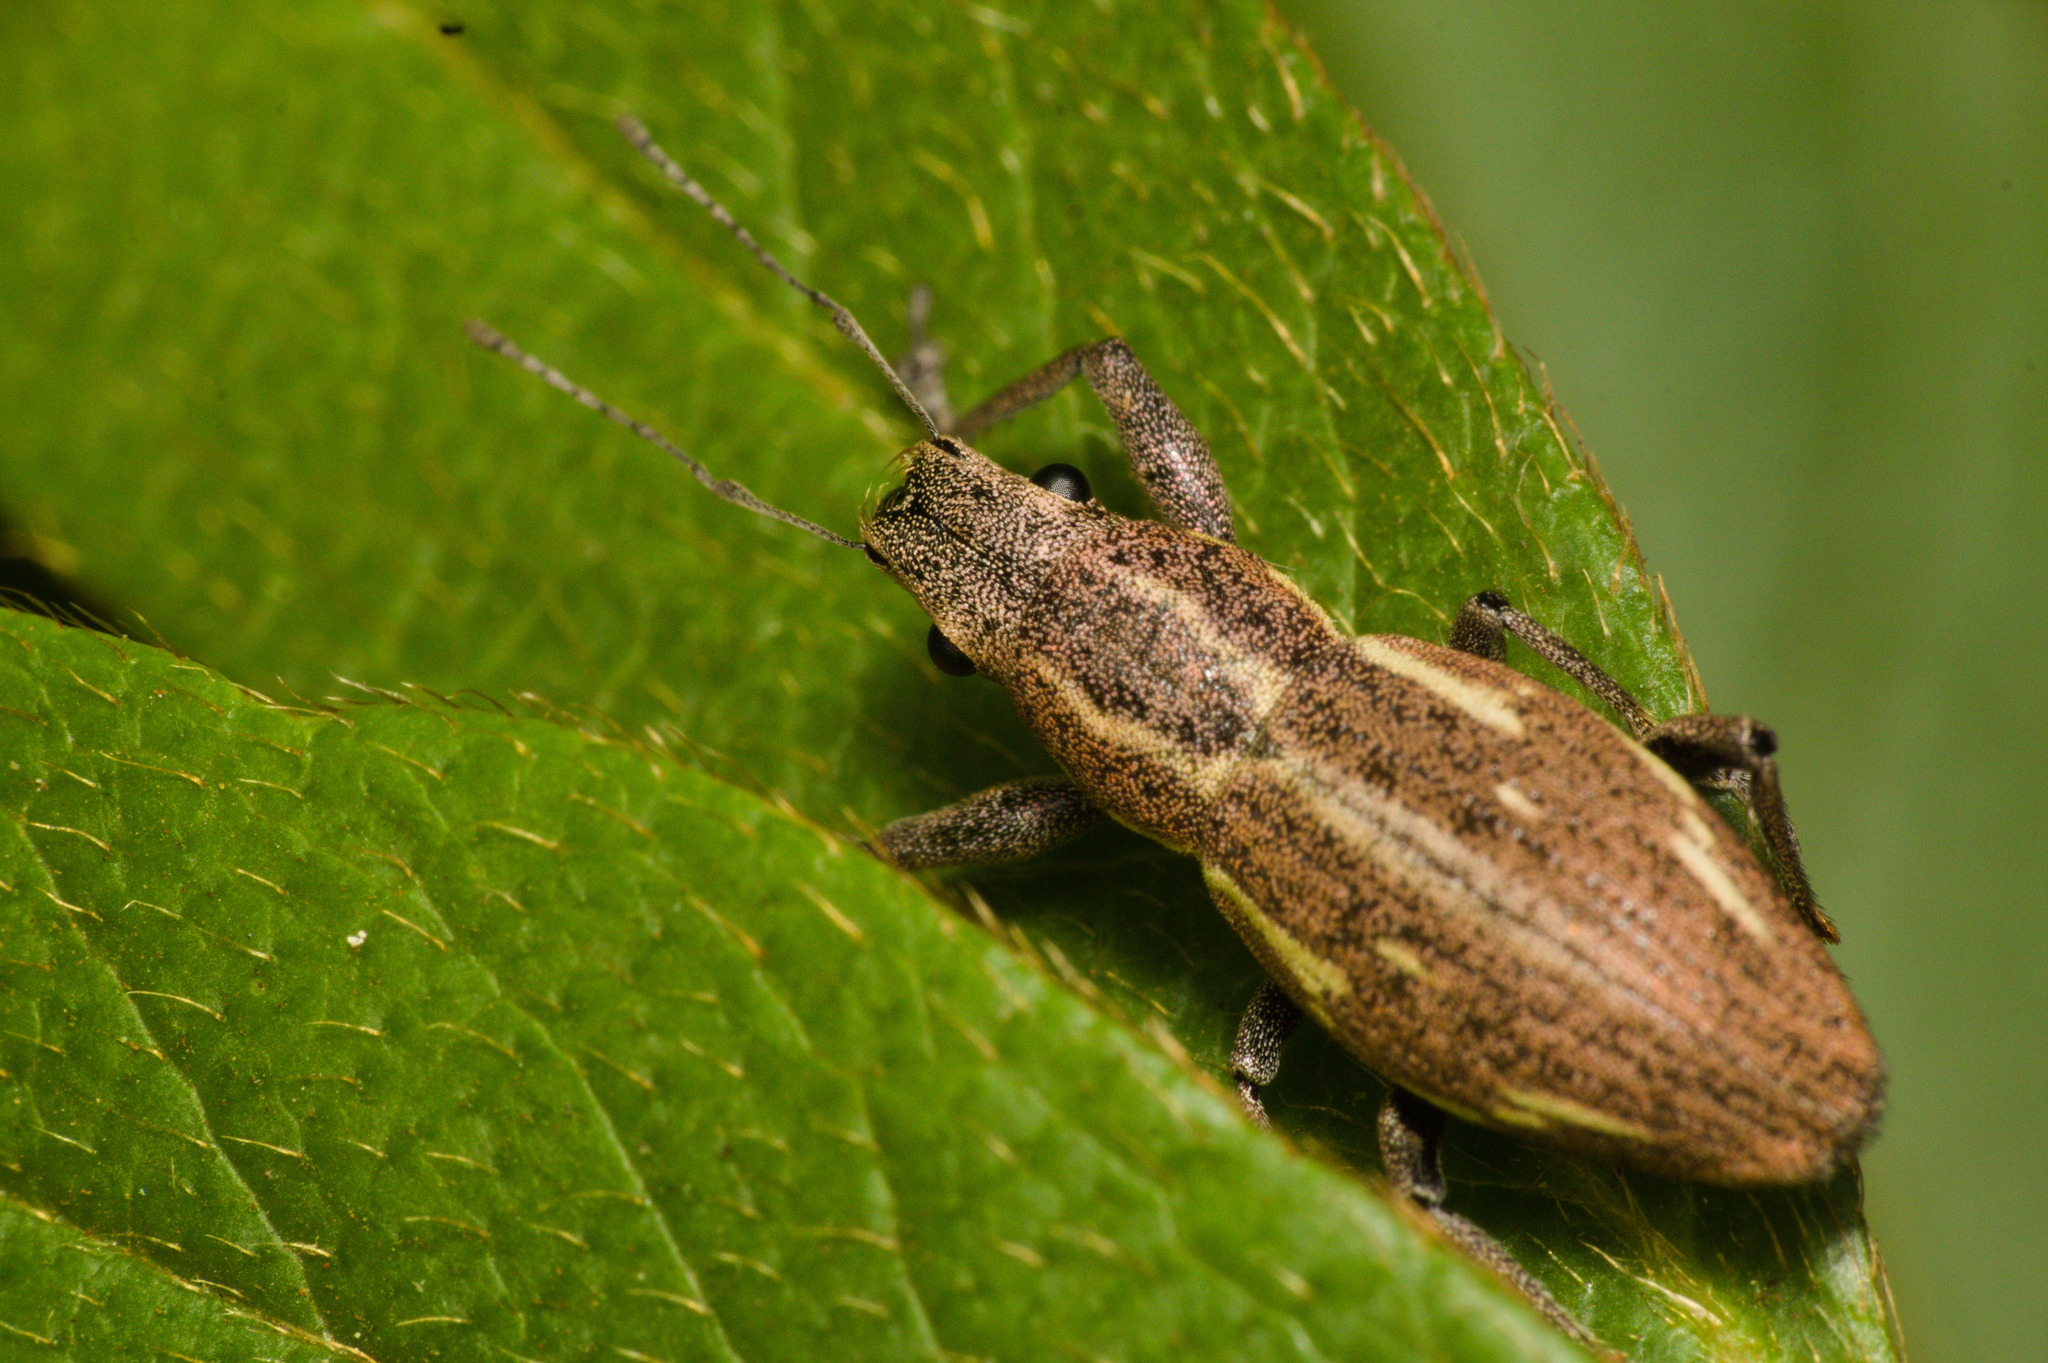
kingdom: Animalia
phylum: Arthropoda
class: Insecta
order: Coleoptera
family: Curculionidae
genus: Naupactus
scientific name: Naupactus dissimilis
